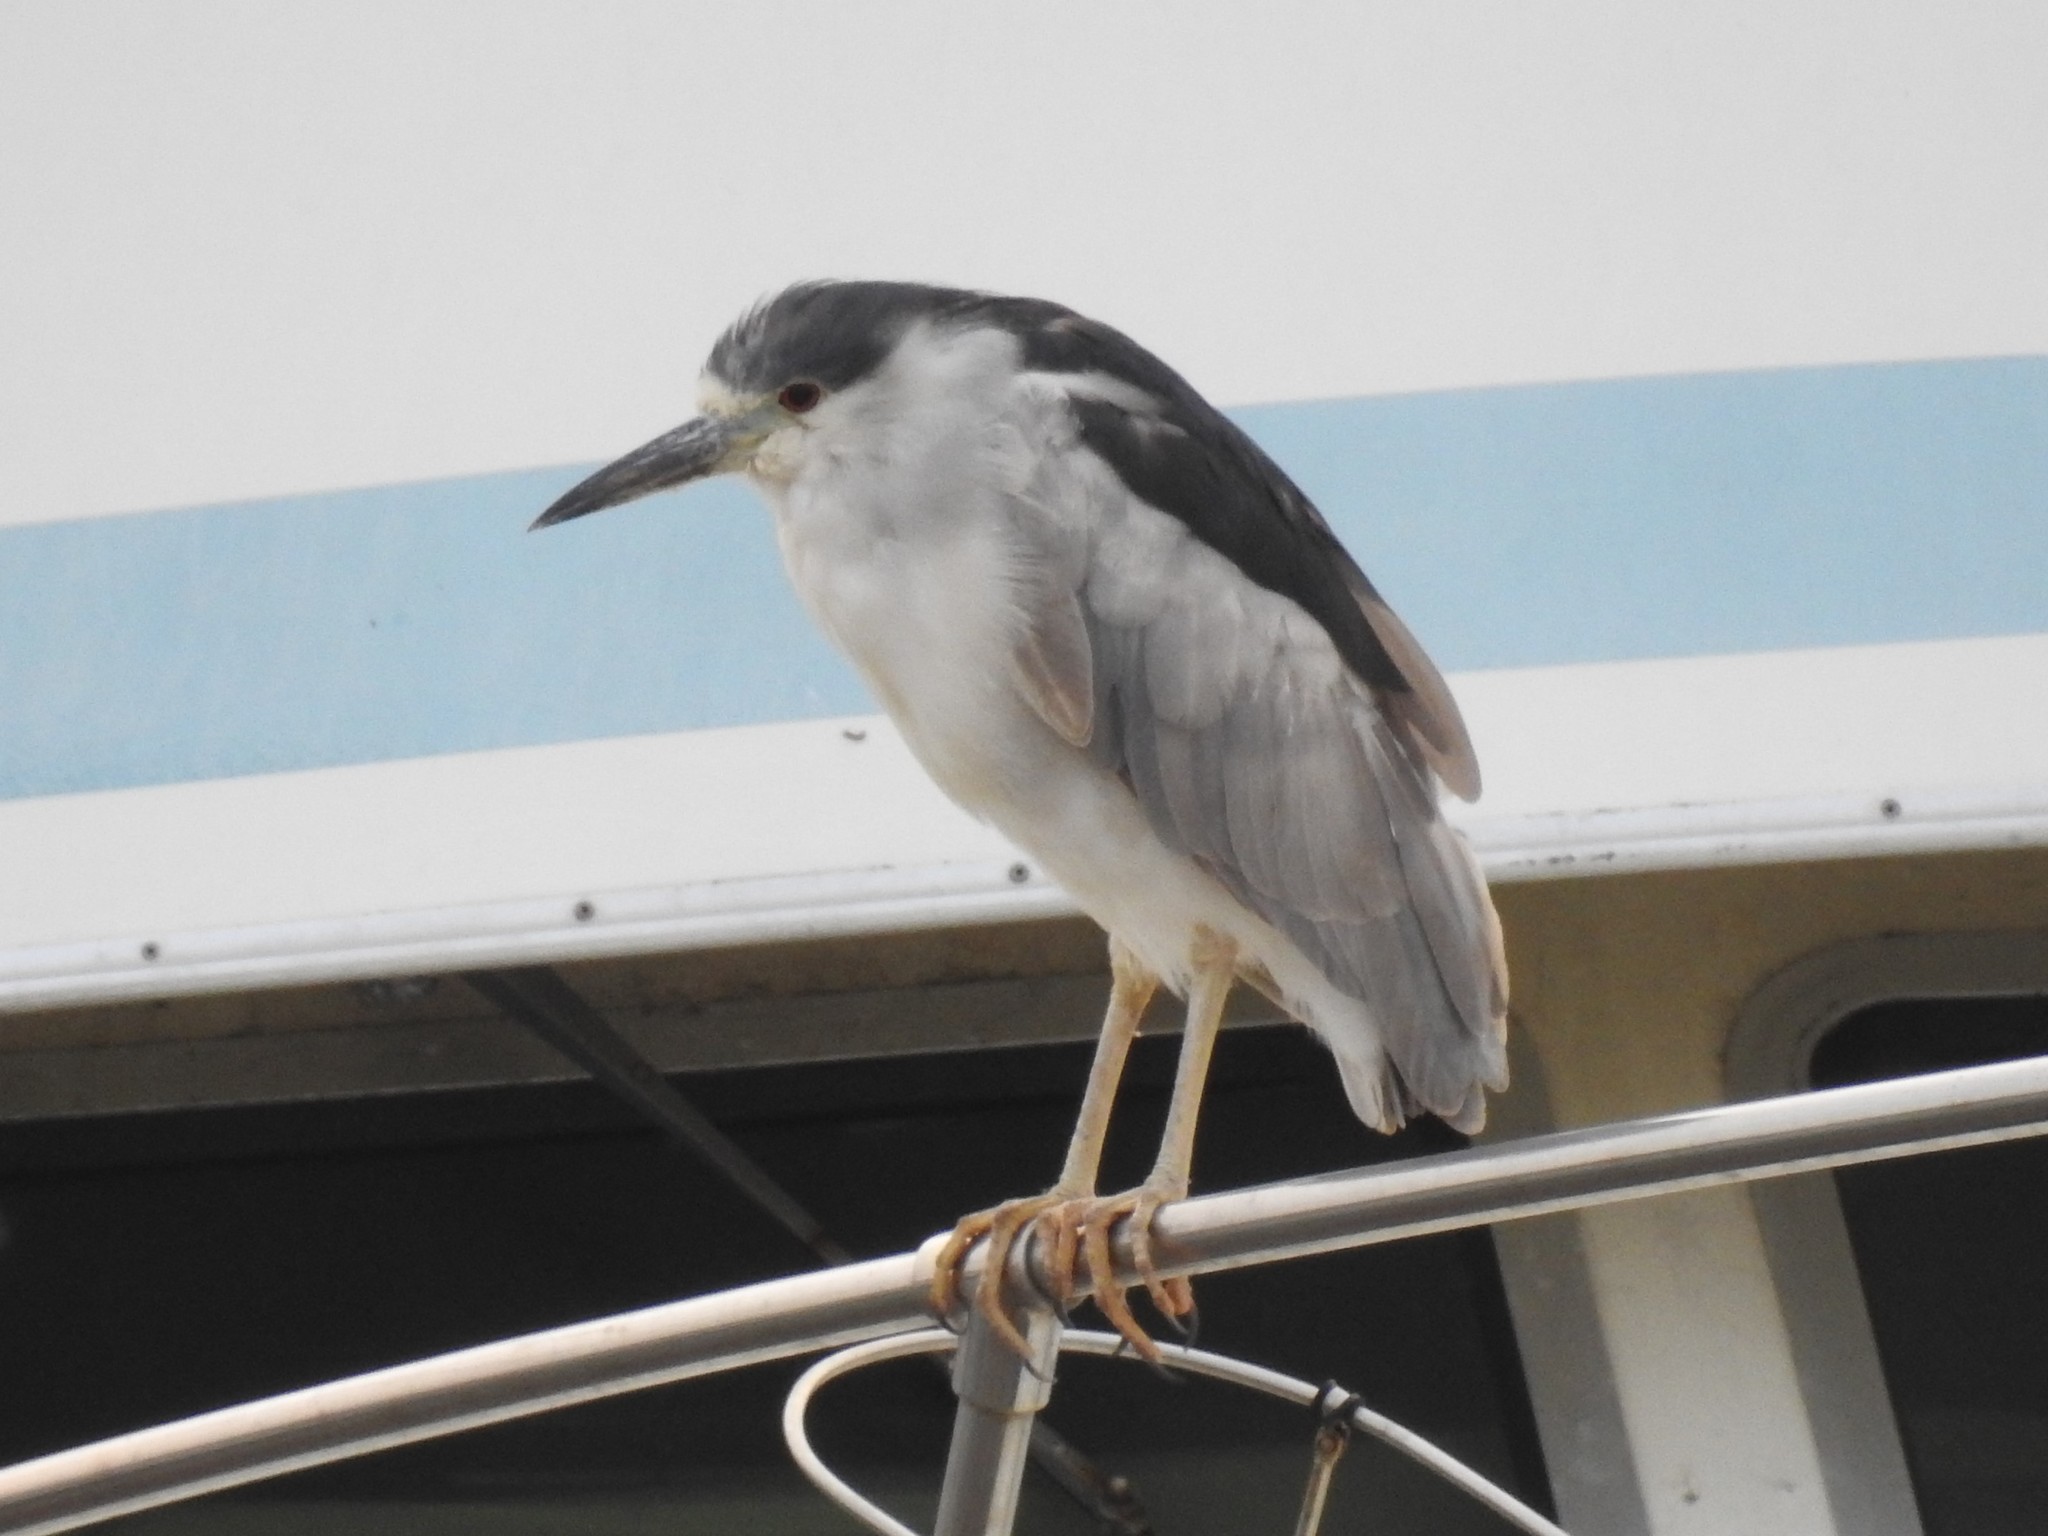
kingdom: Animalia
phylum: Chordata
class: Aves
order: Pelecaniformes
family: Ardeidae
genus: Nycticorax
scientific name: Nycticorax nycticorax
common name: Black-crowned night heron
